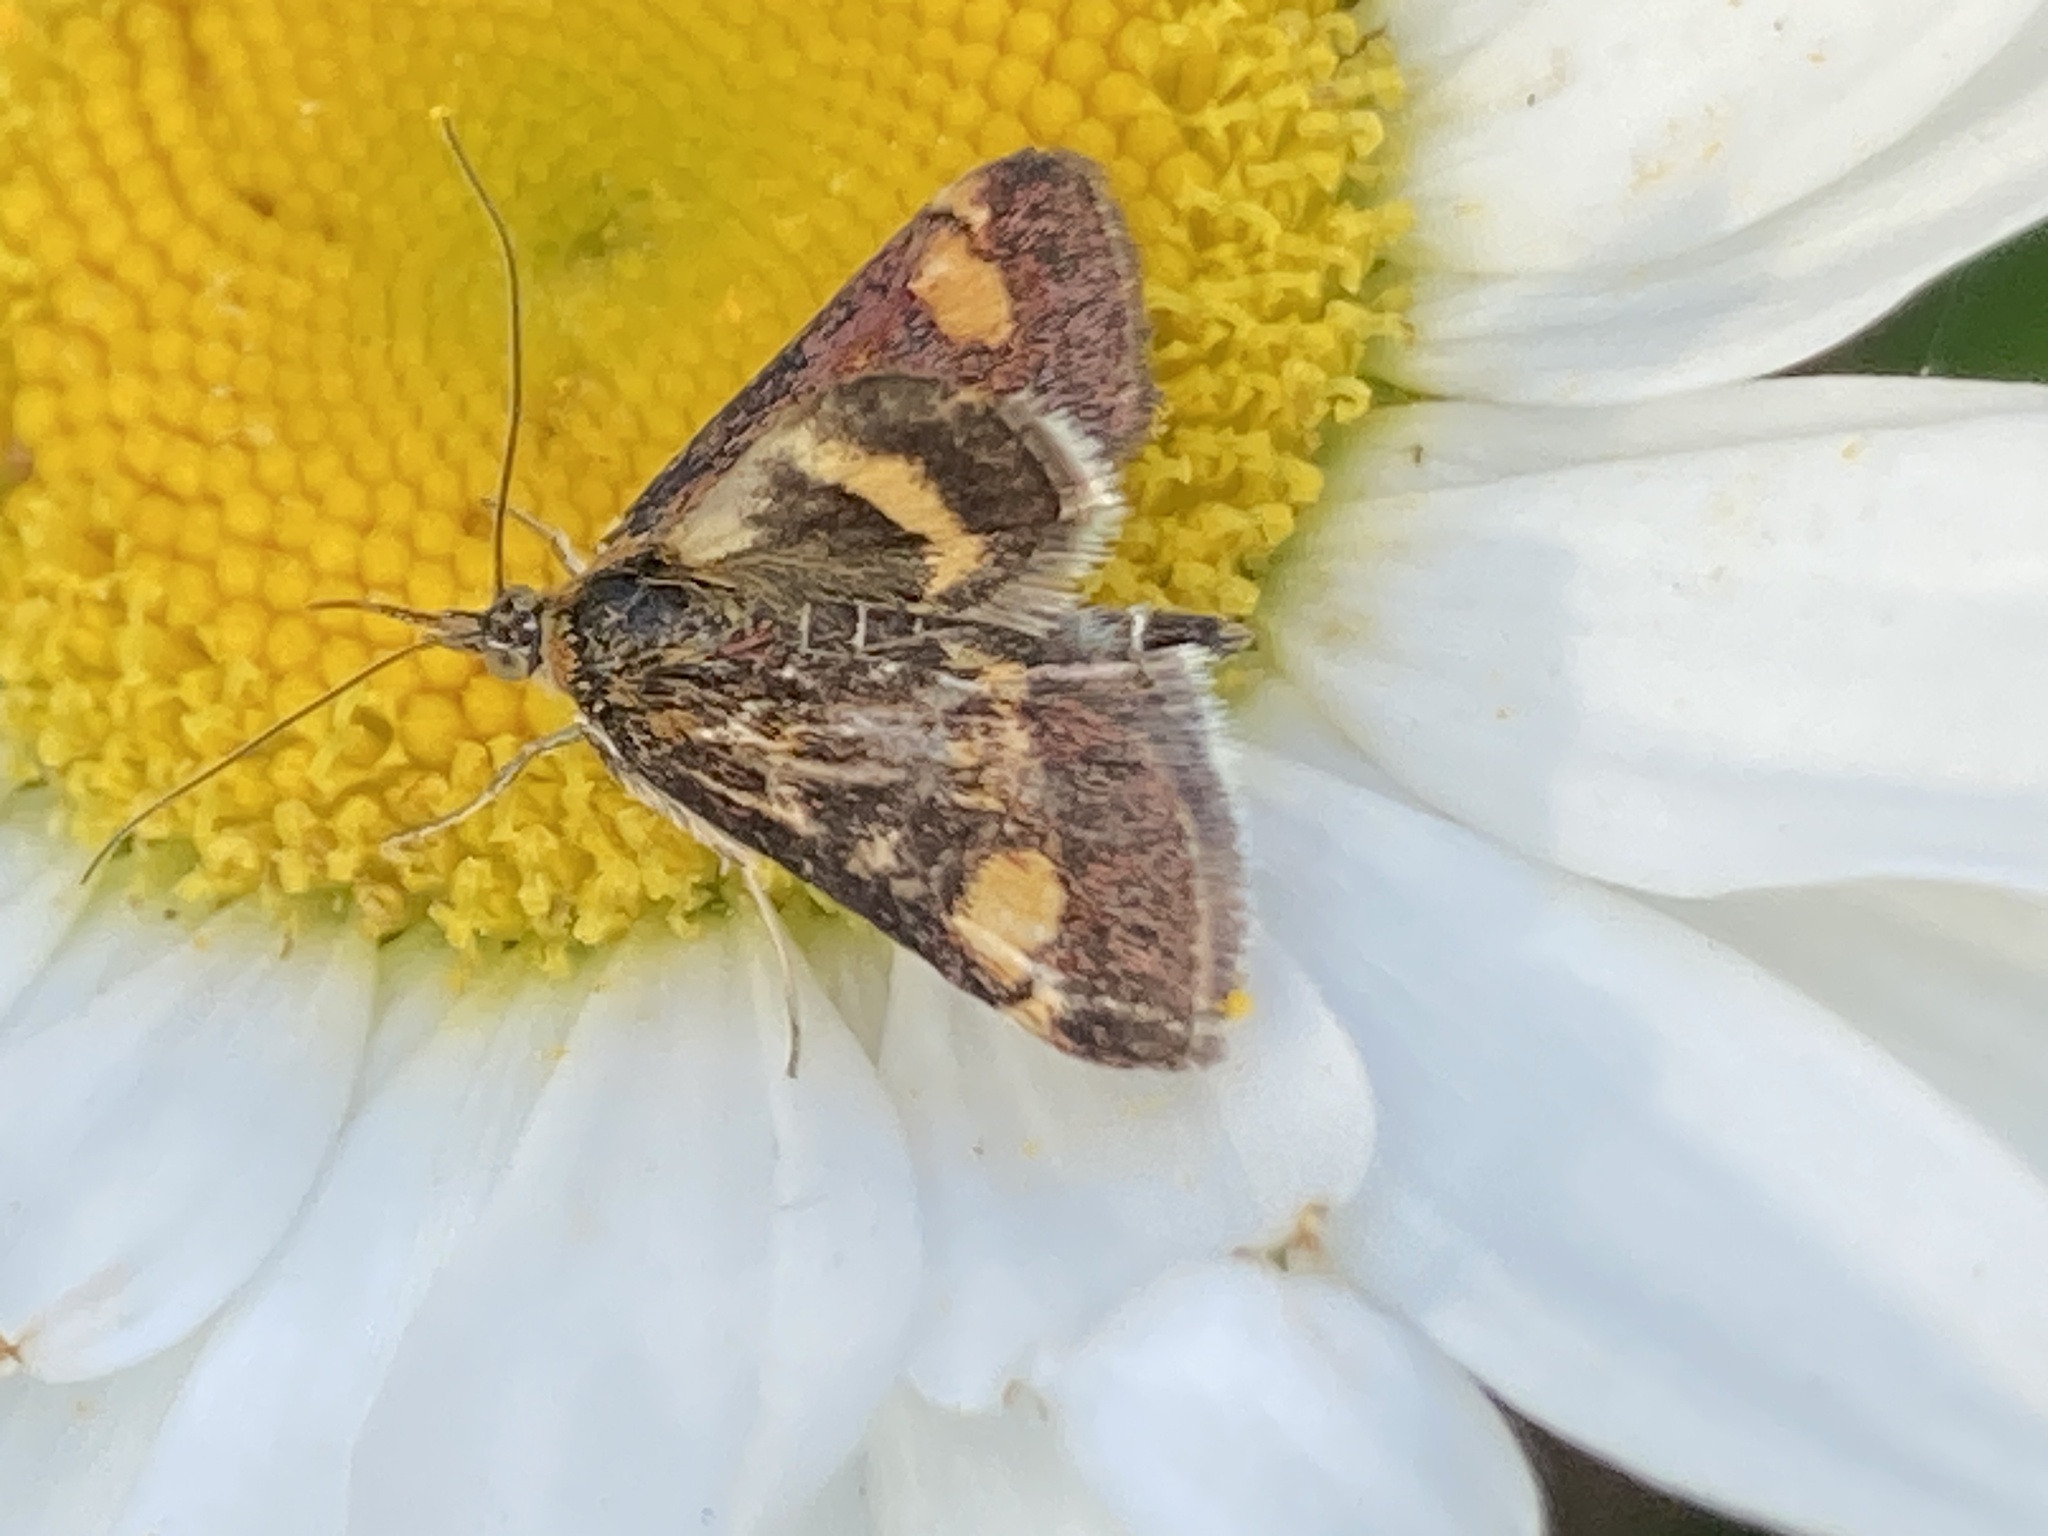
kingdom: Animalia
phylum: Arthropoda
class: Insecta
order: Lepidoptera
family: Crambidae
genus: Pyrausta
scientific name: Pyrausta aurata
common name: Small purple & gold
